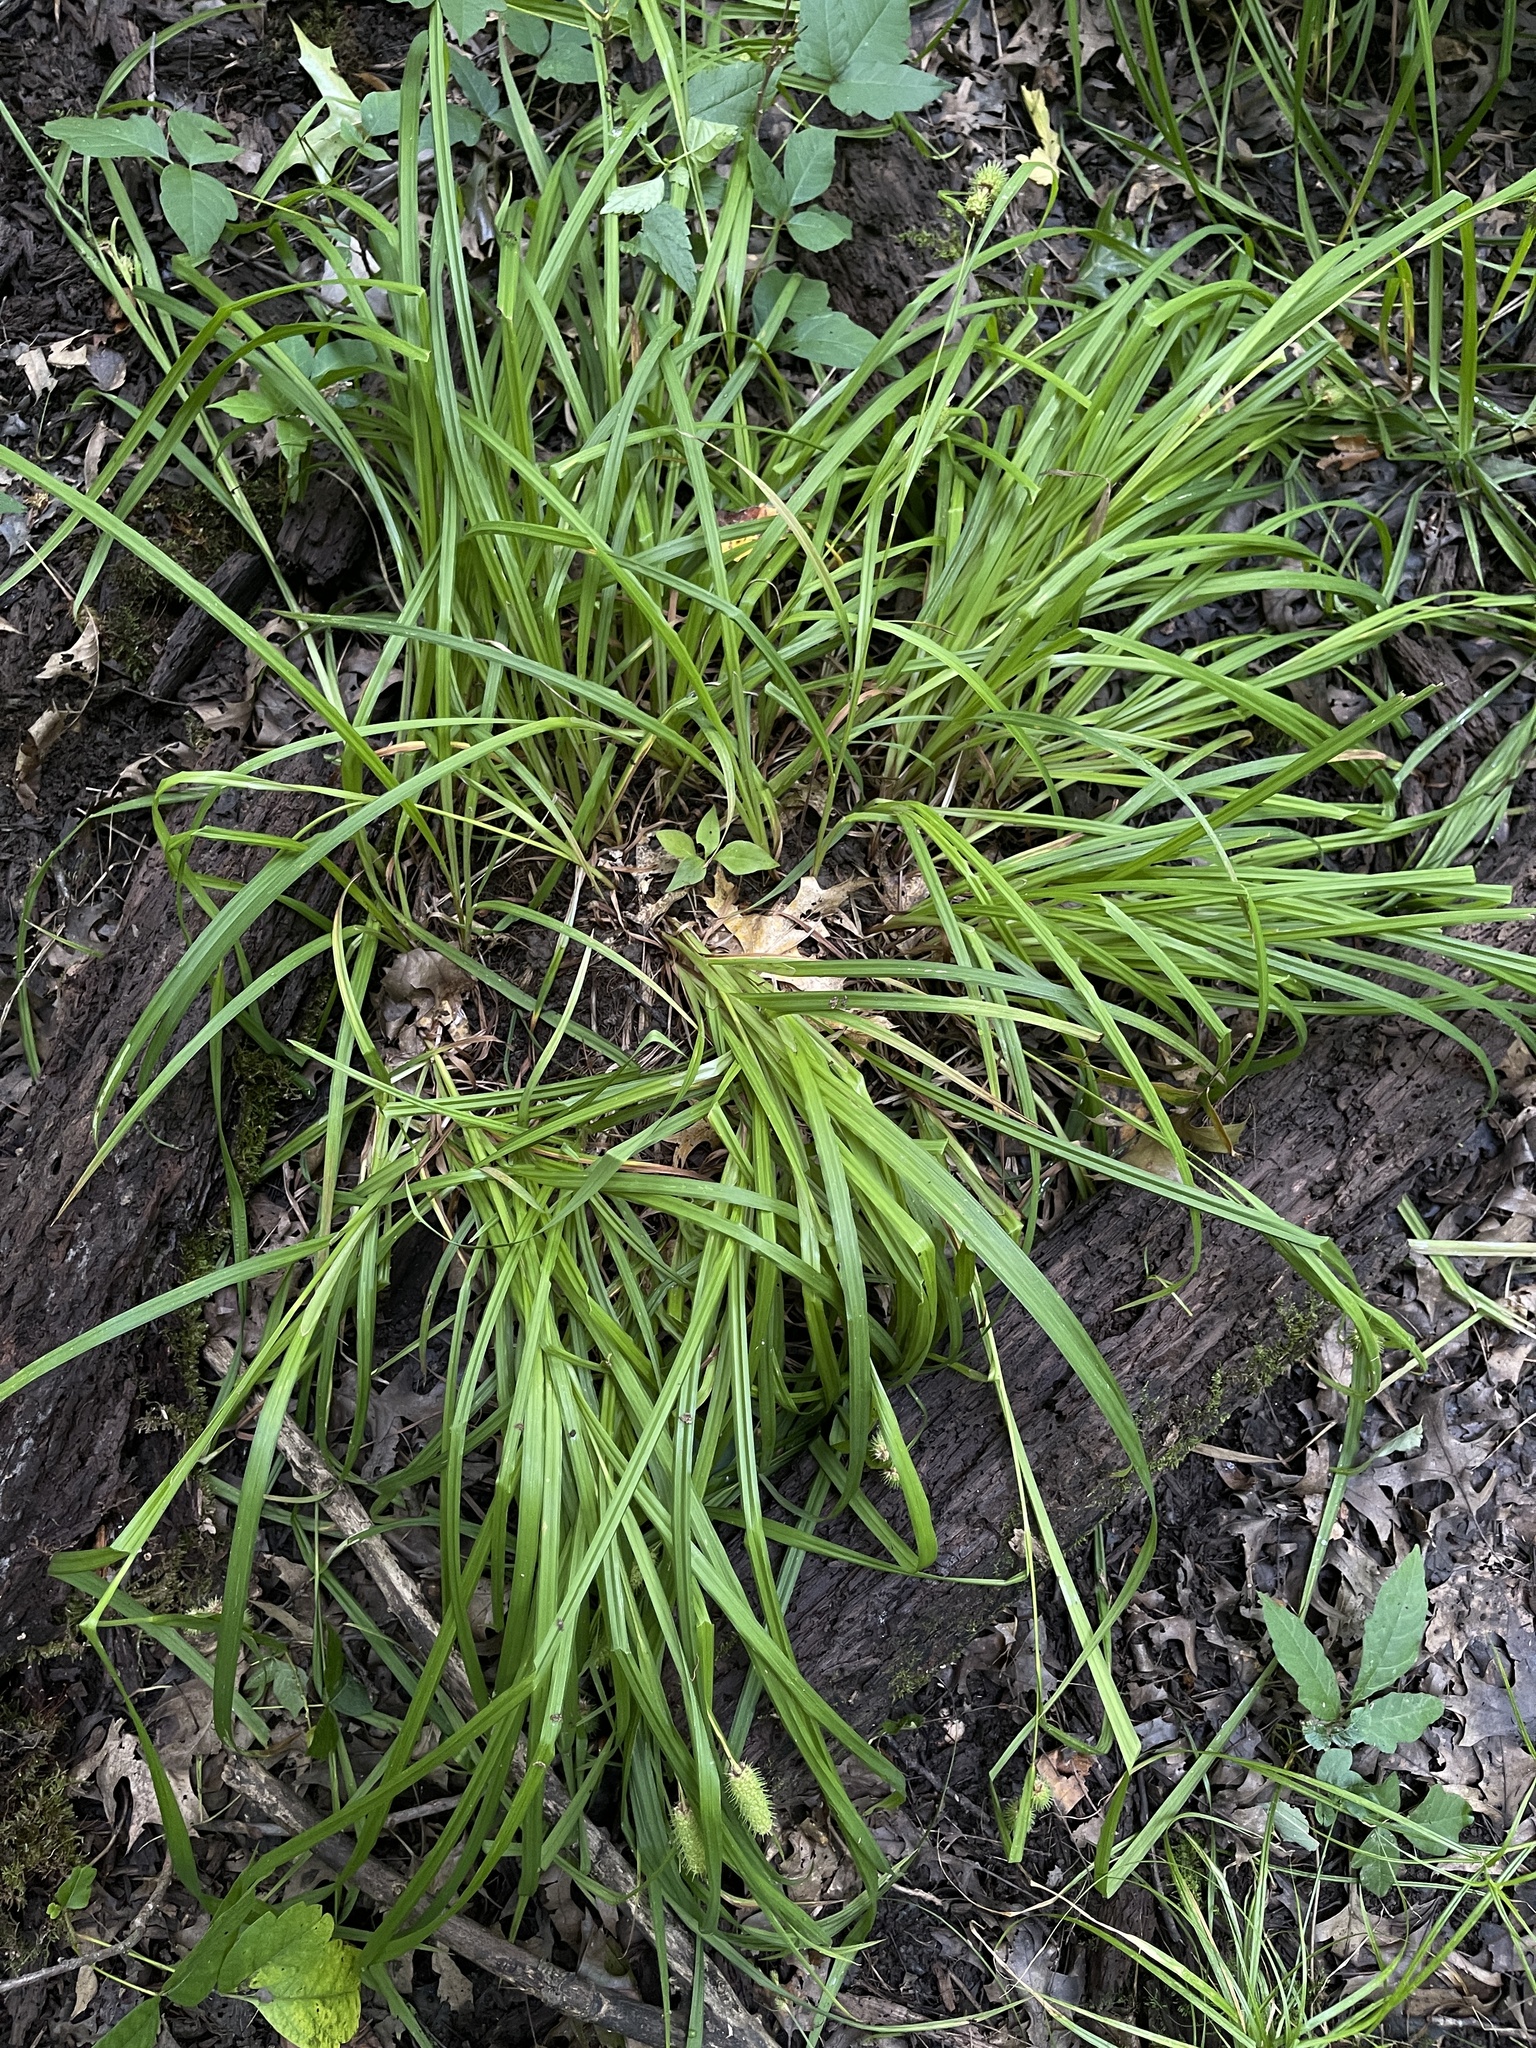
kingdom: Plantae
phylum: Tracheophyta
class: Liliopsida
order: Poales
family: Cyperaceae
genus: Carex
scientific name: Carex typhina
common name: Cattail sedge
